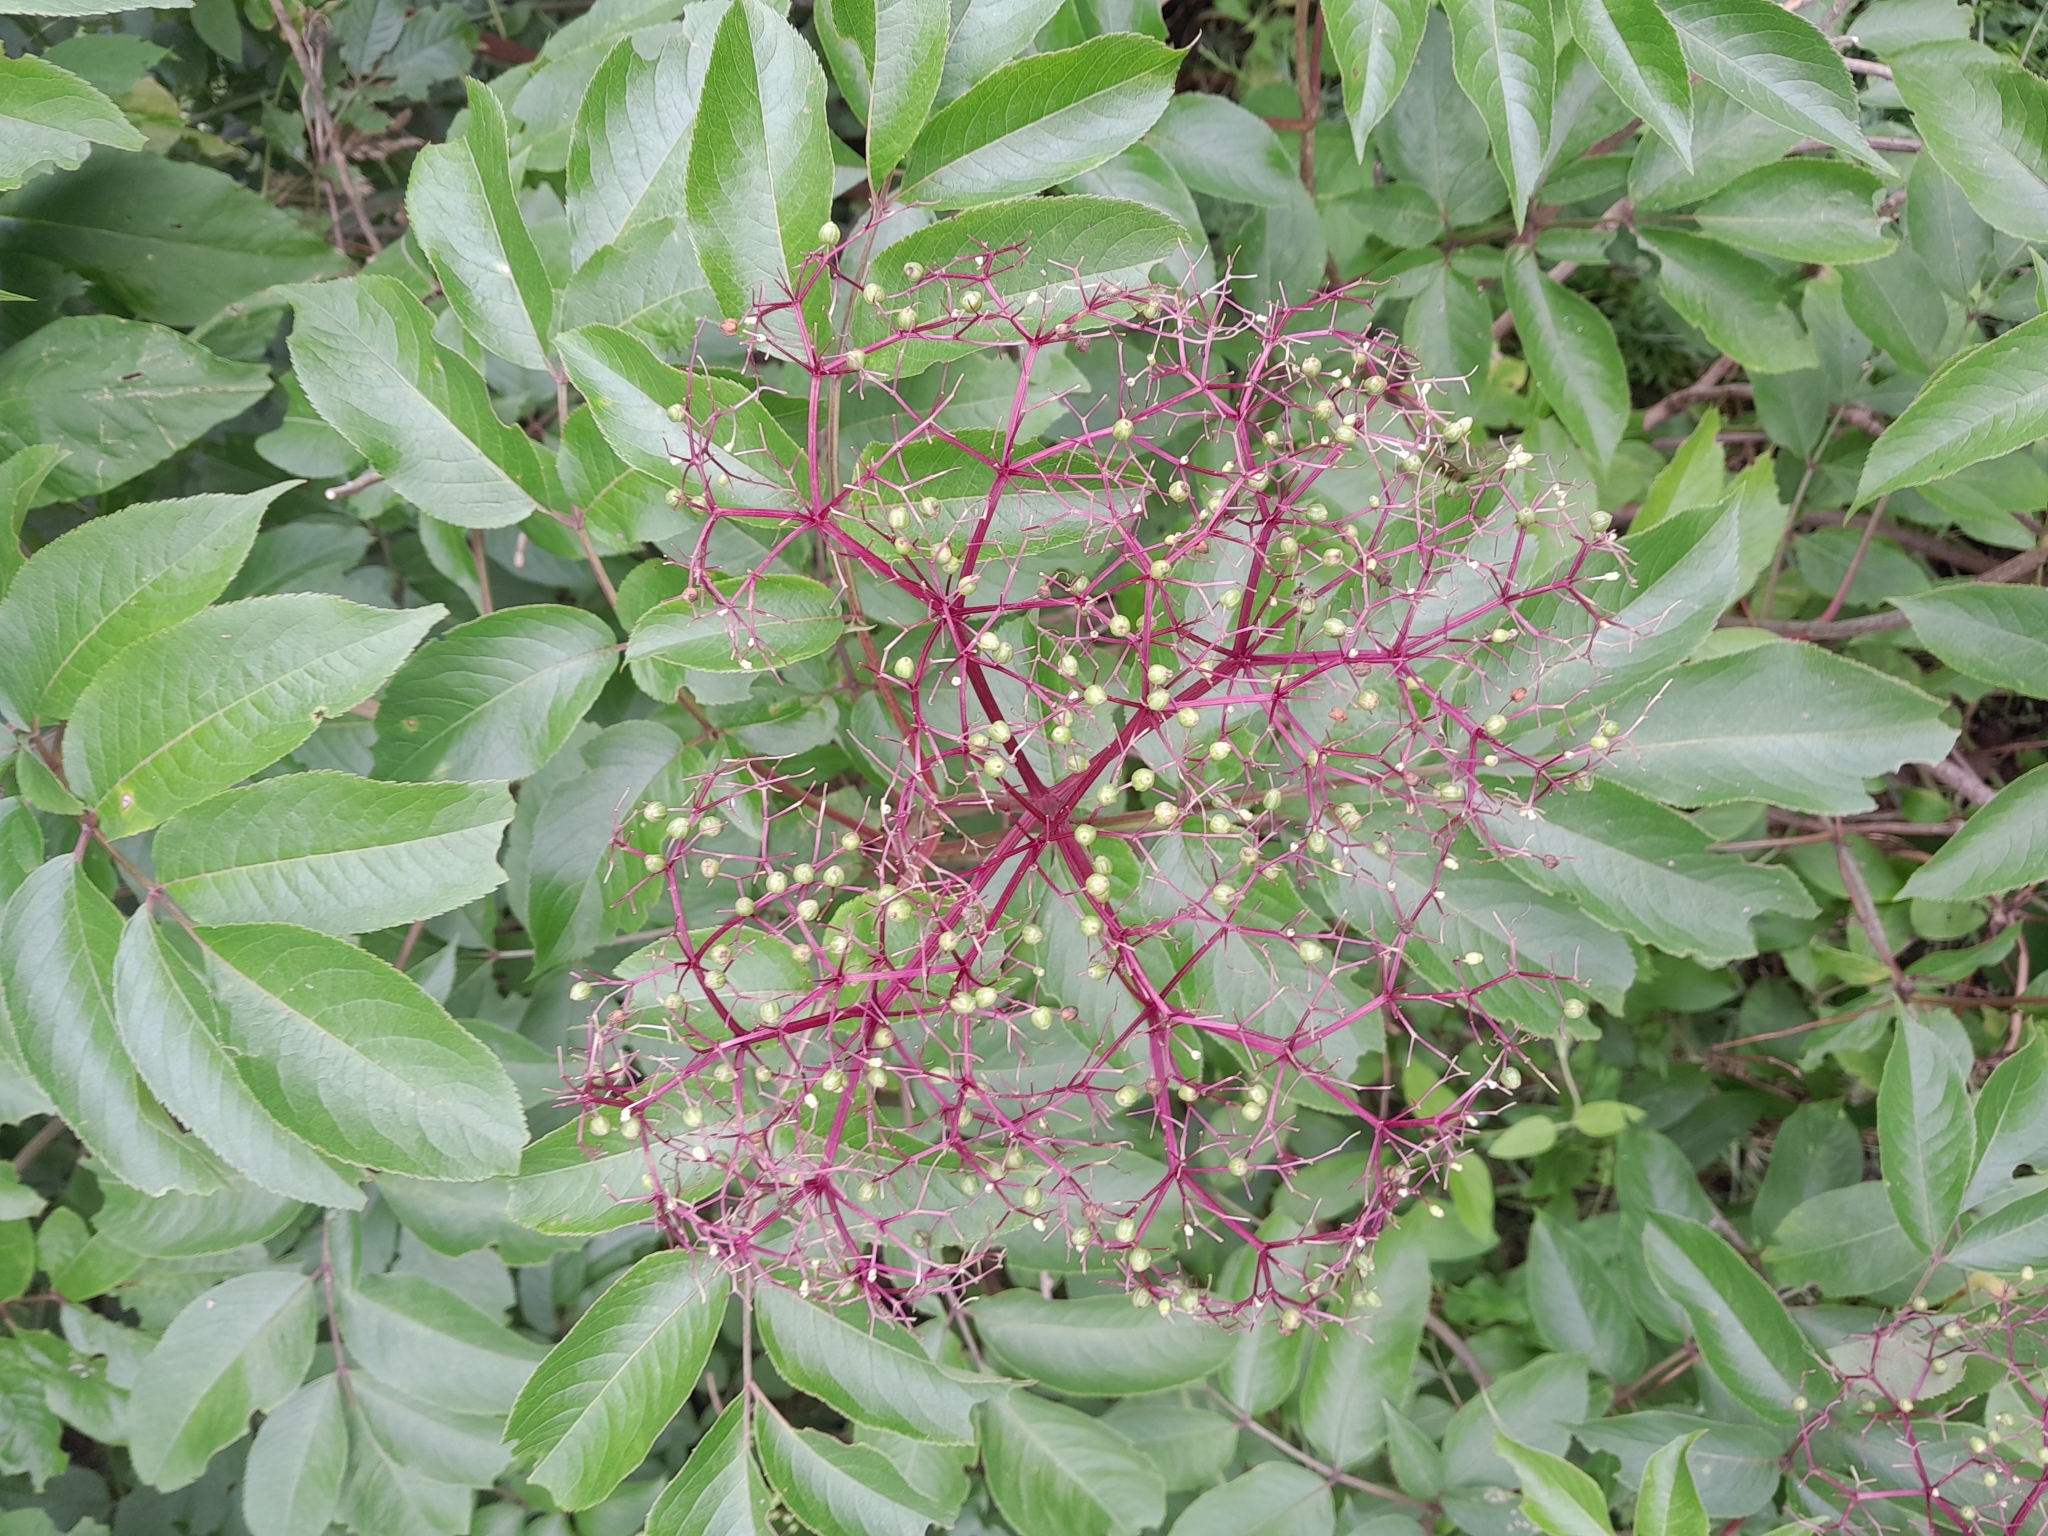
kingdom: Plantae
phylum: Tracheophyta
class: Magnoliopsida
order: Dipsacales
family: Viburnaceae
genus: Sambucus
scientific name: Sambucus canadensis
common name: American elder
